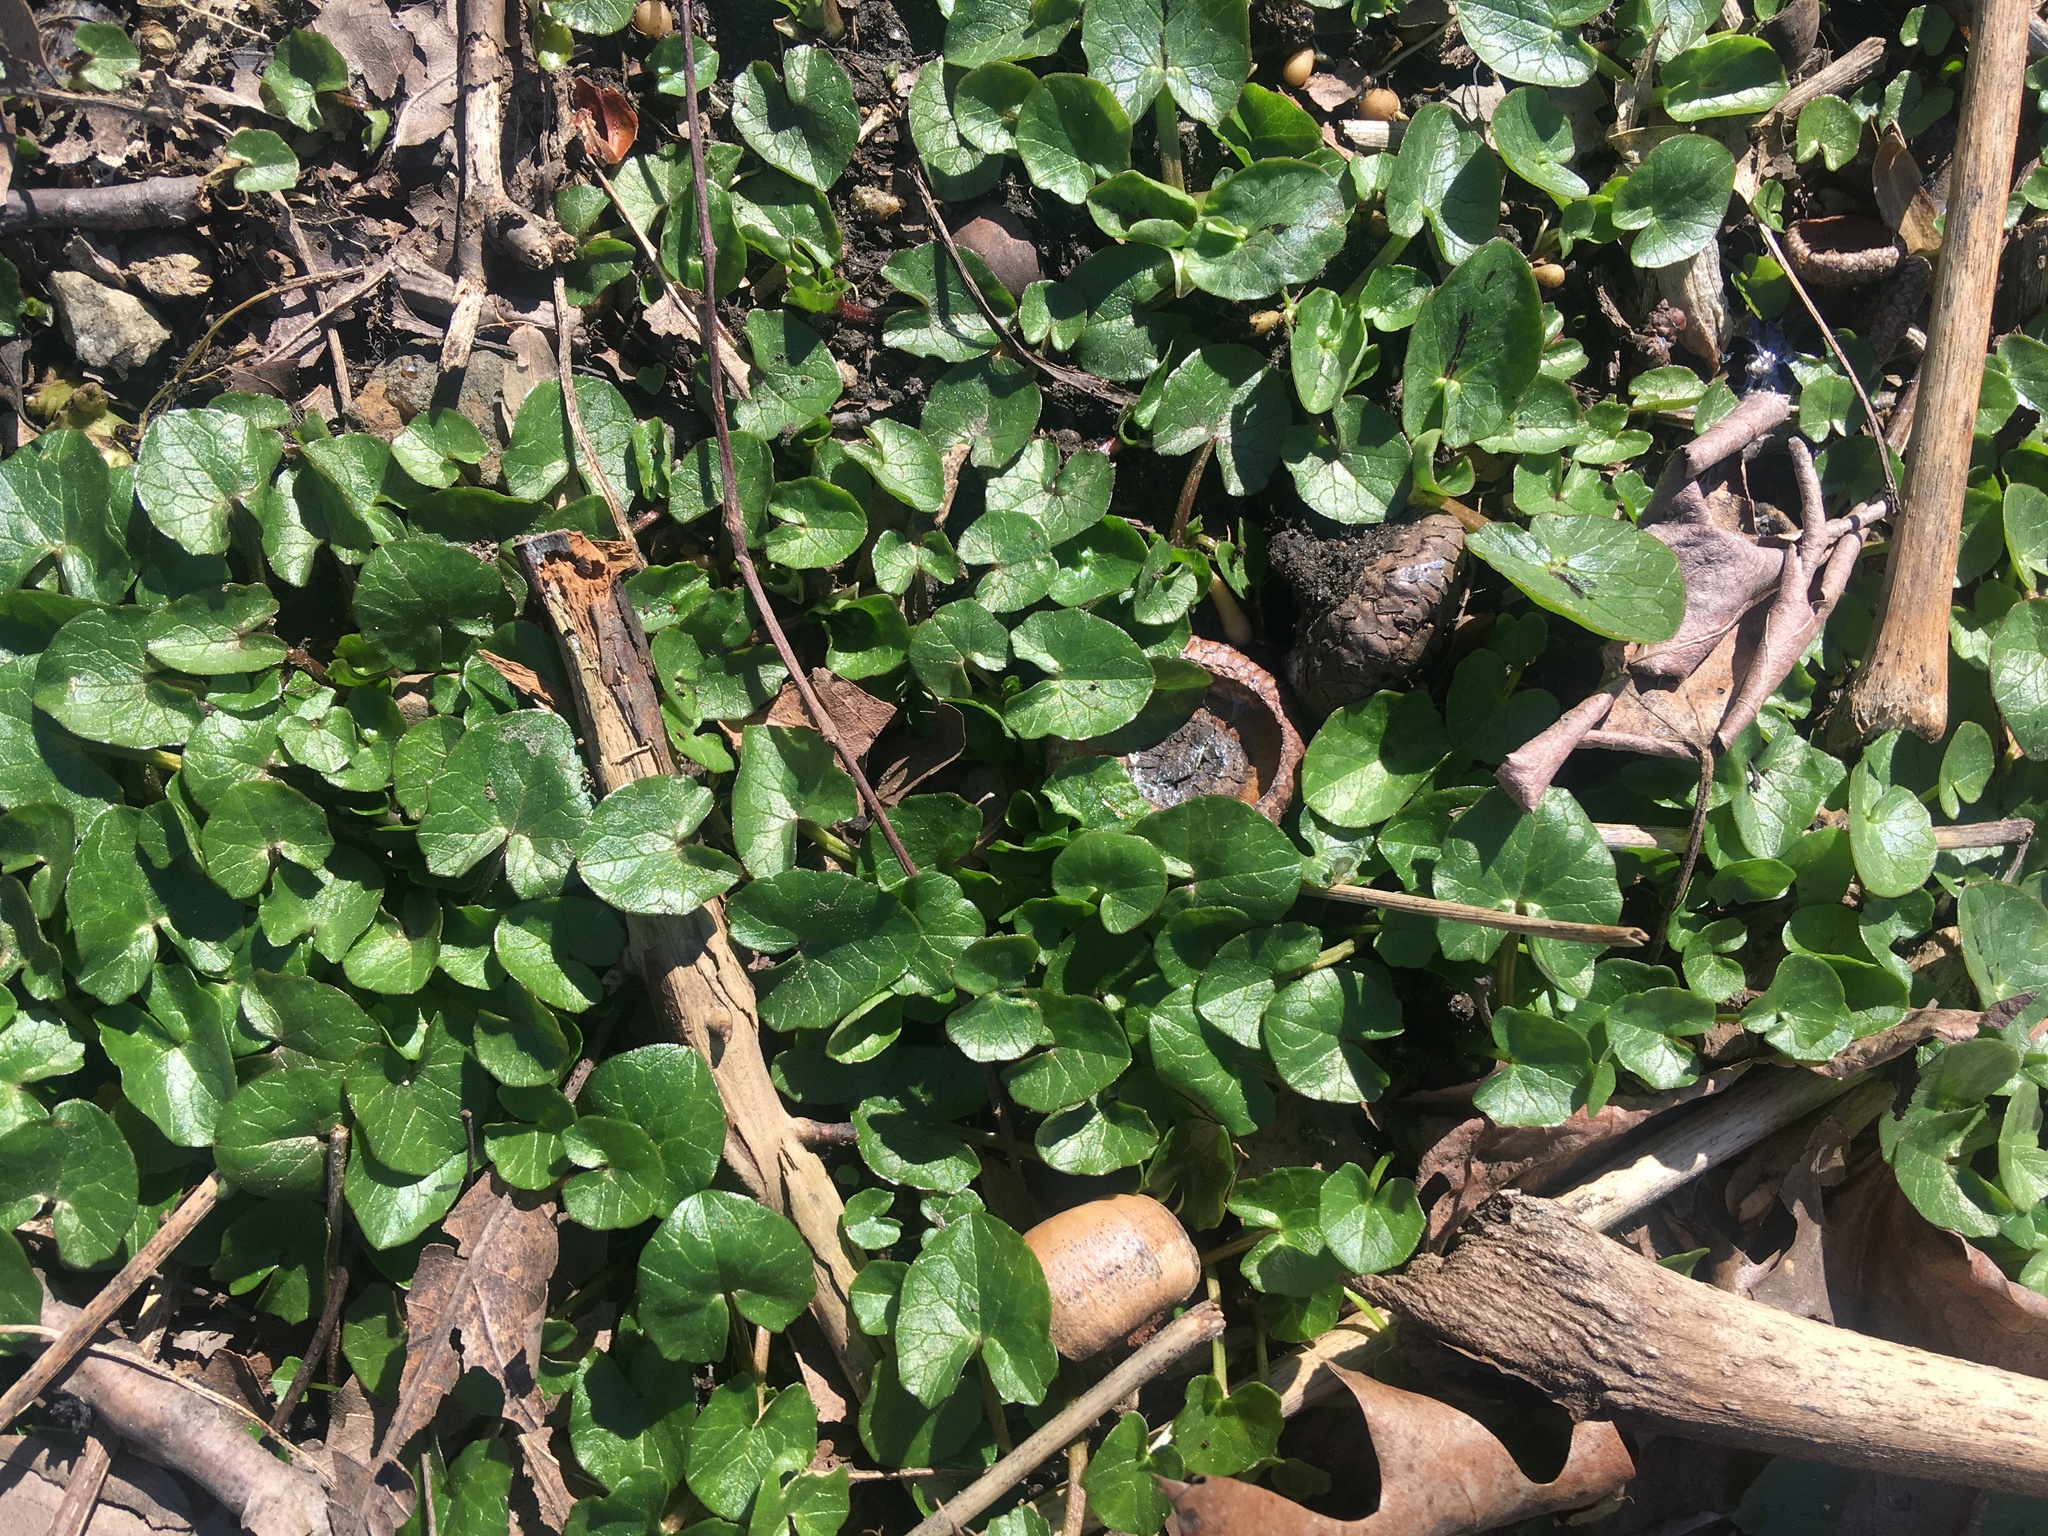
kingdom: Plantae
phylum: Tracheophyta
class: Magnoliopsida
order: Ranunculales
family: Ranunculaceae
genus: Ficaria
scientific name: Ficaria verna
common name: Lesser celandine
